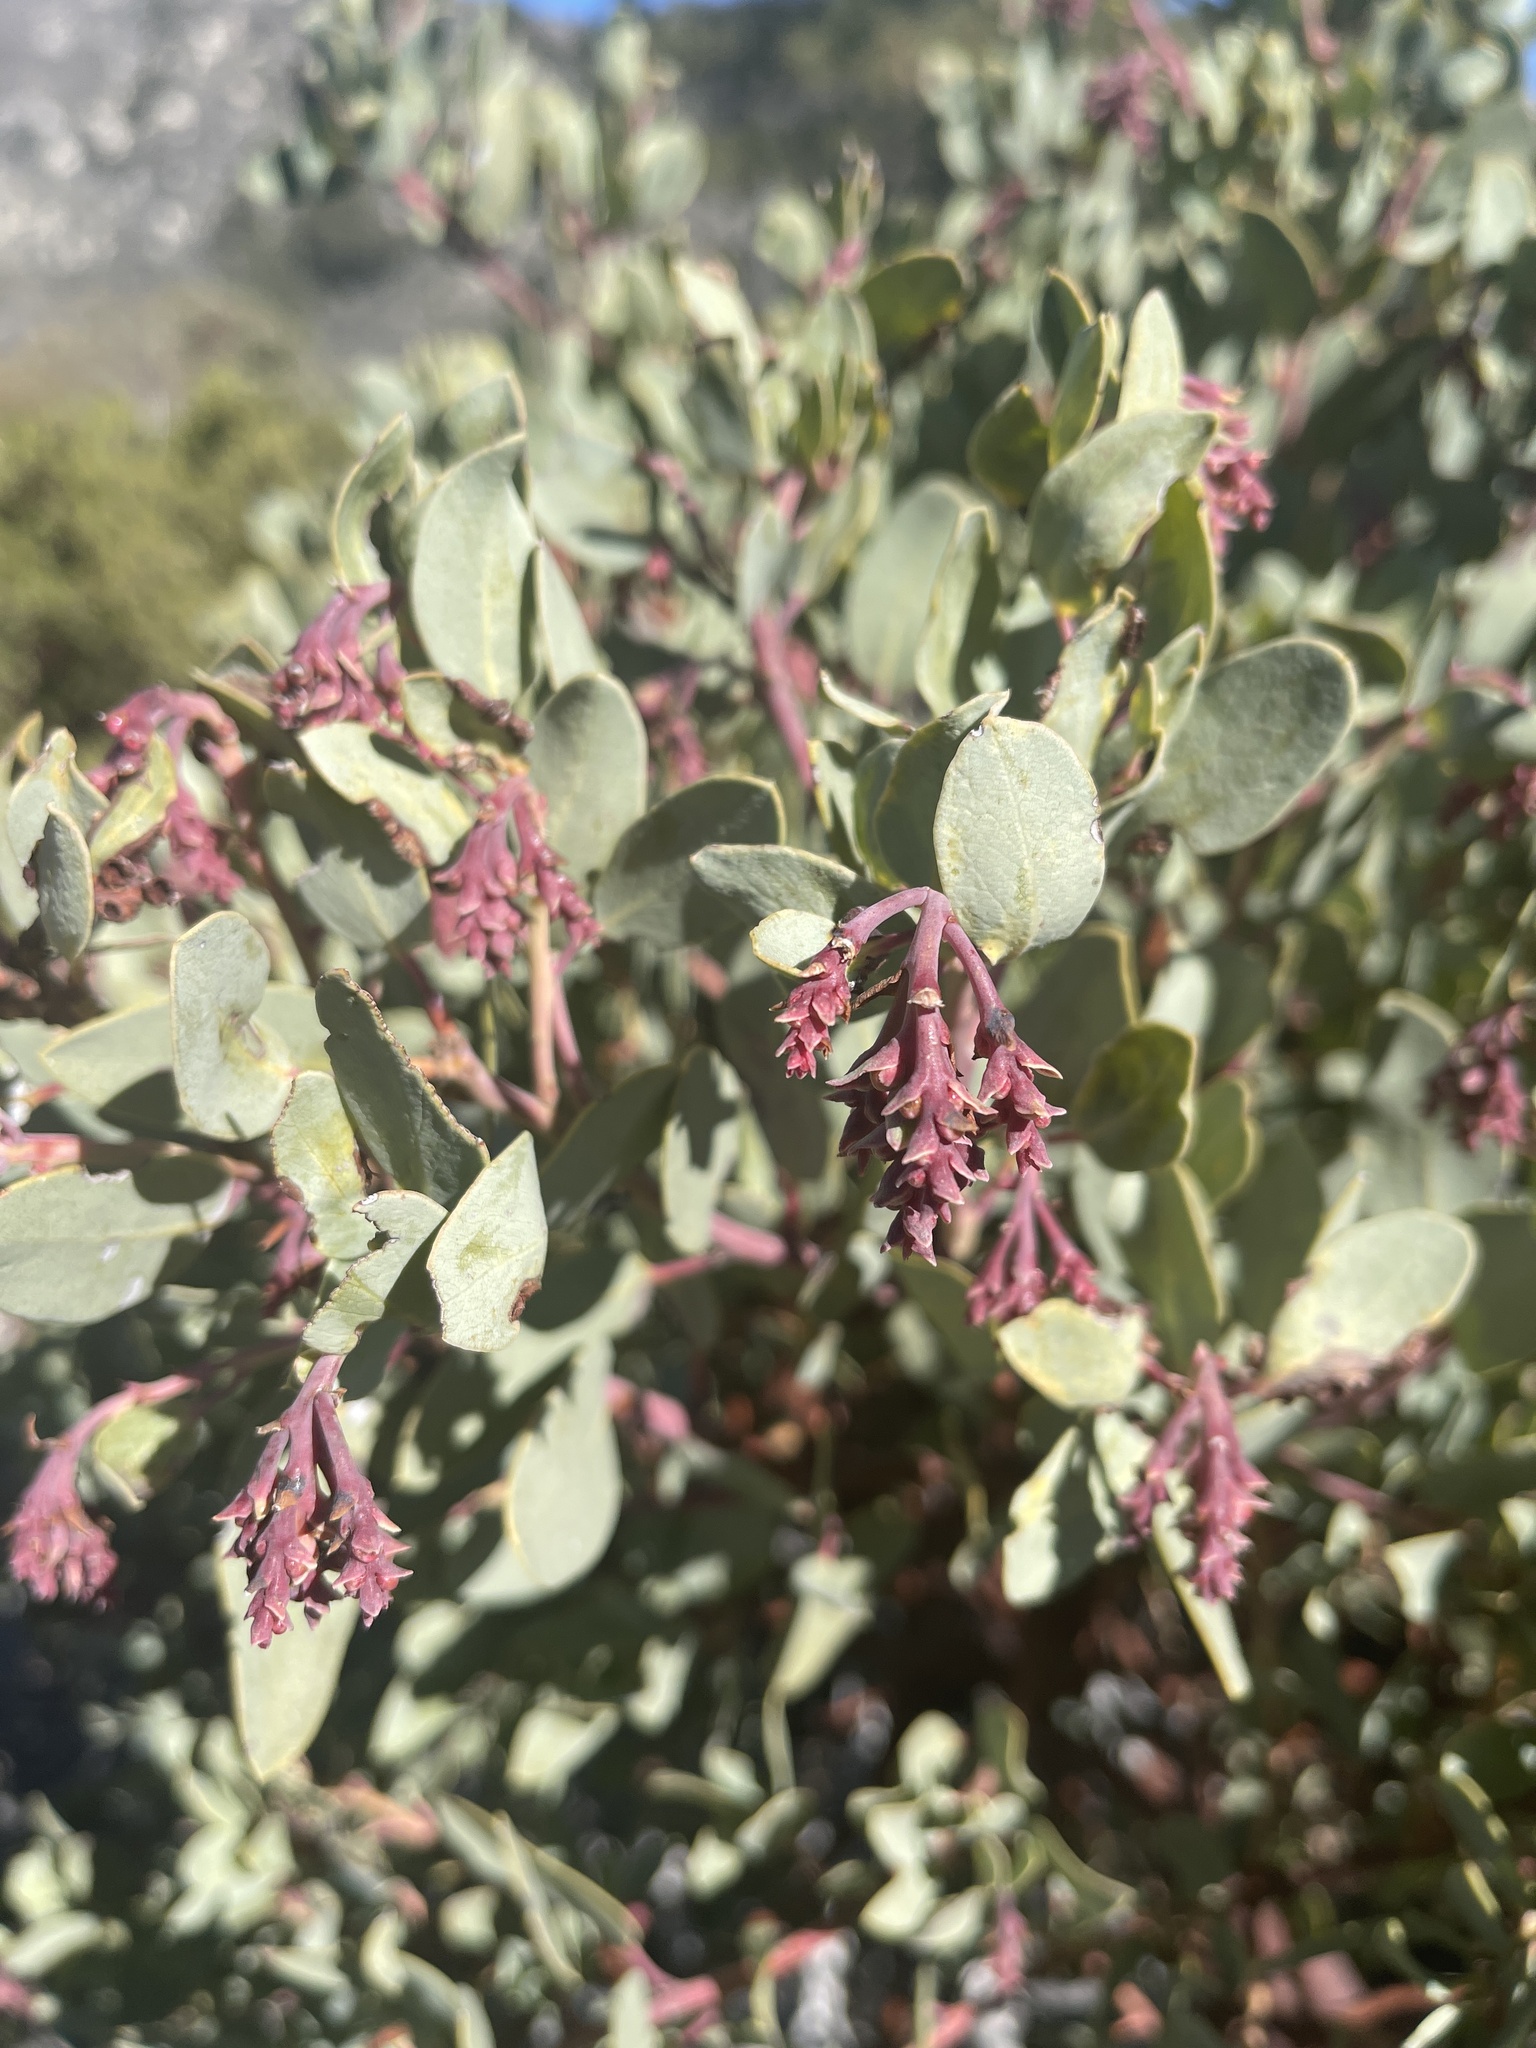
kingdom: Plantae
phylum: Tracheophyta
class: Magnoliopsida
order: Ericales
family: Ericaceae
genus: Arctostaphylos
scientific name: Arctostaphylos glauca
